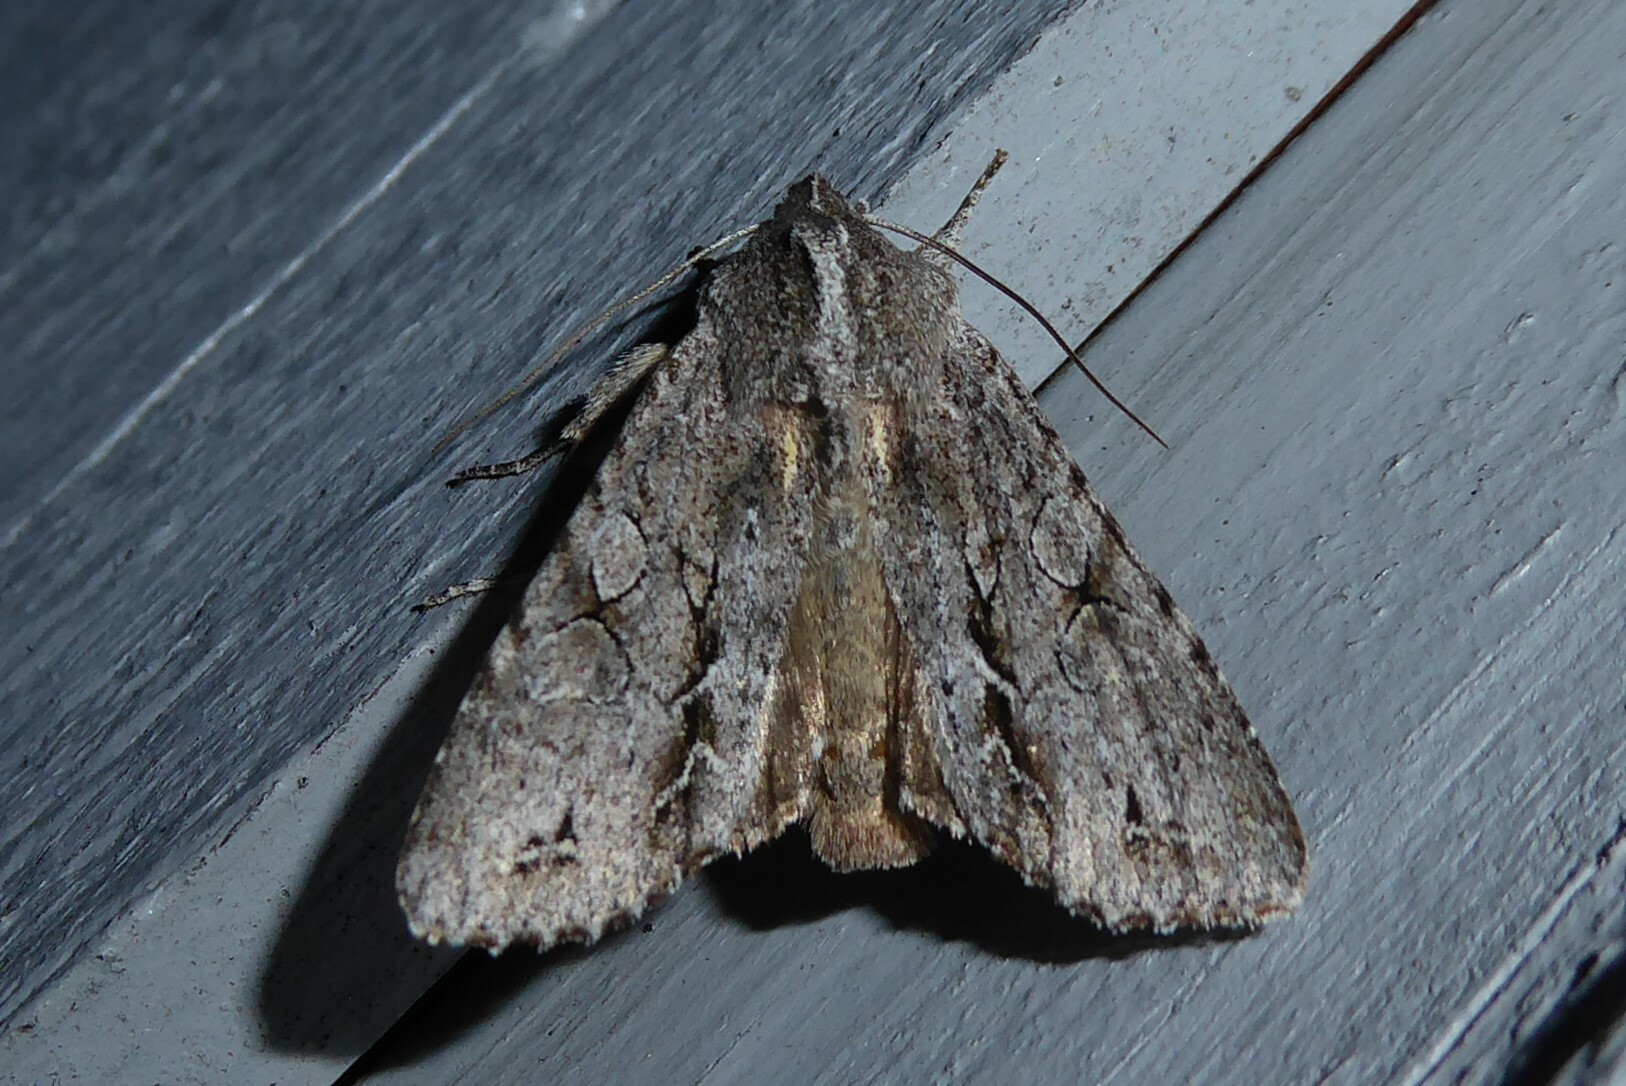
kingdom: Animalia
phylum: Arthropoda
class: Insecta
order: Lepidoptera
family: Noctuidae
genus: Ichneutica
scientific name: Ichneutica
